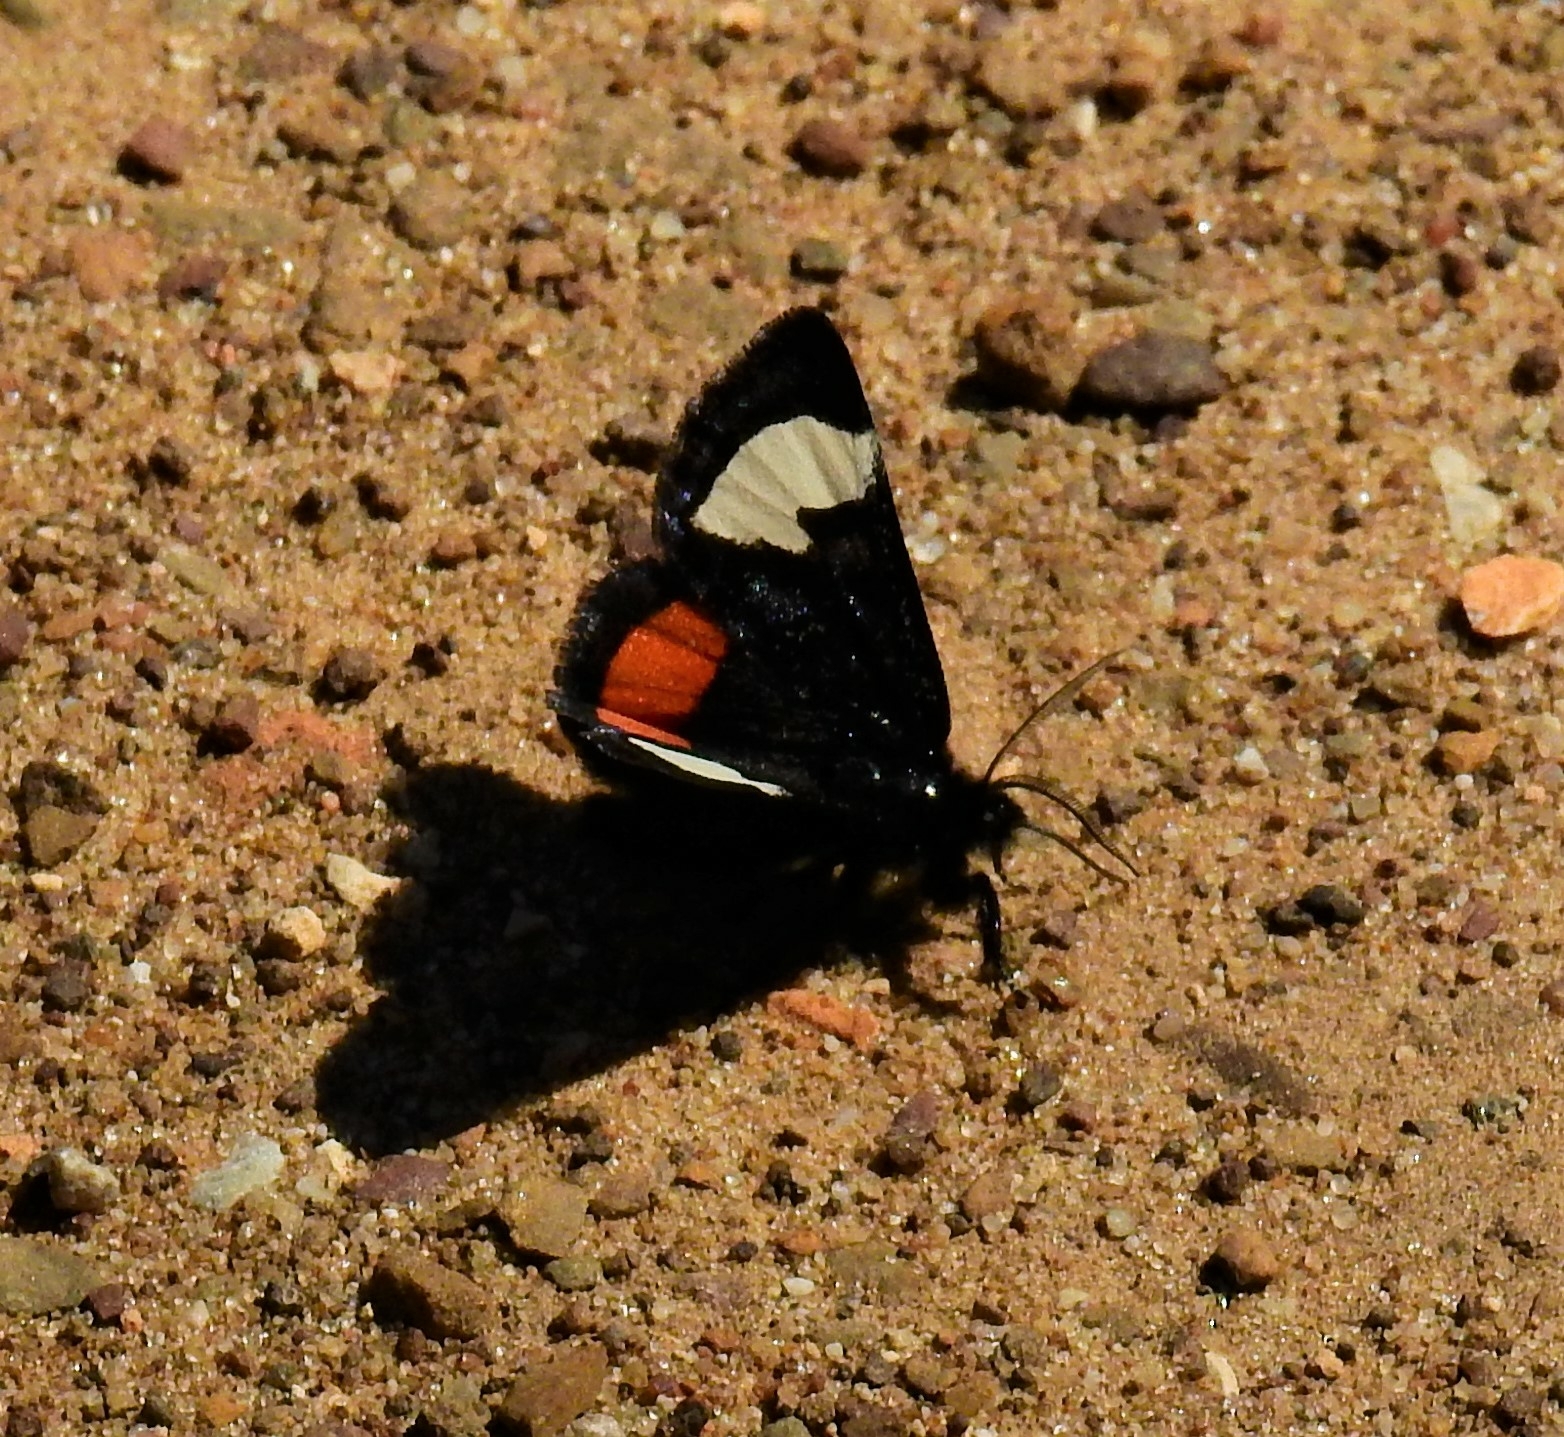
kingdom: Animalia
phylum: Arthropoda
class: Insecta
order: Lepidoptera
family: Noctuidae
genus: Psychomorpha
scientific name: Psychomorpha epimenis
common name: Grapevine epimenis moth
